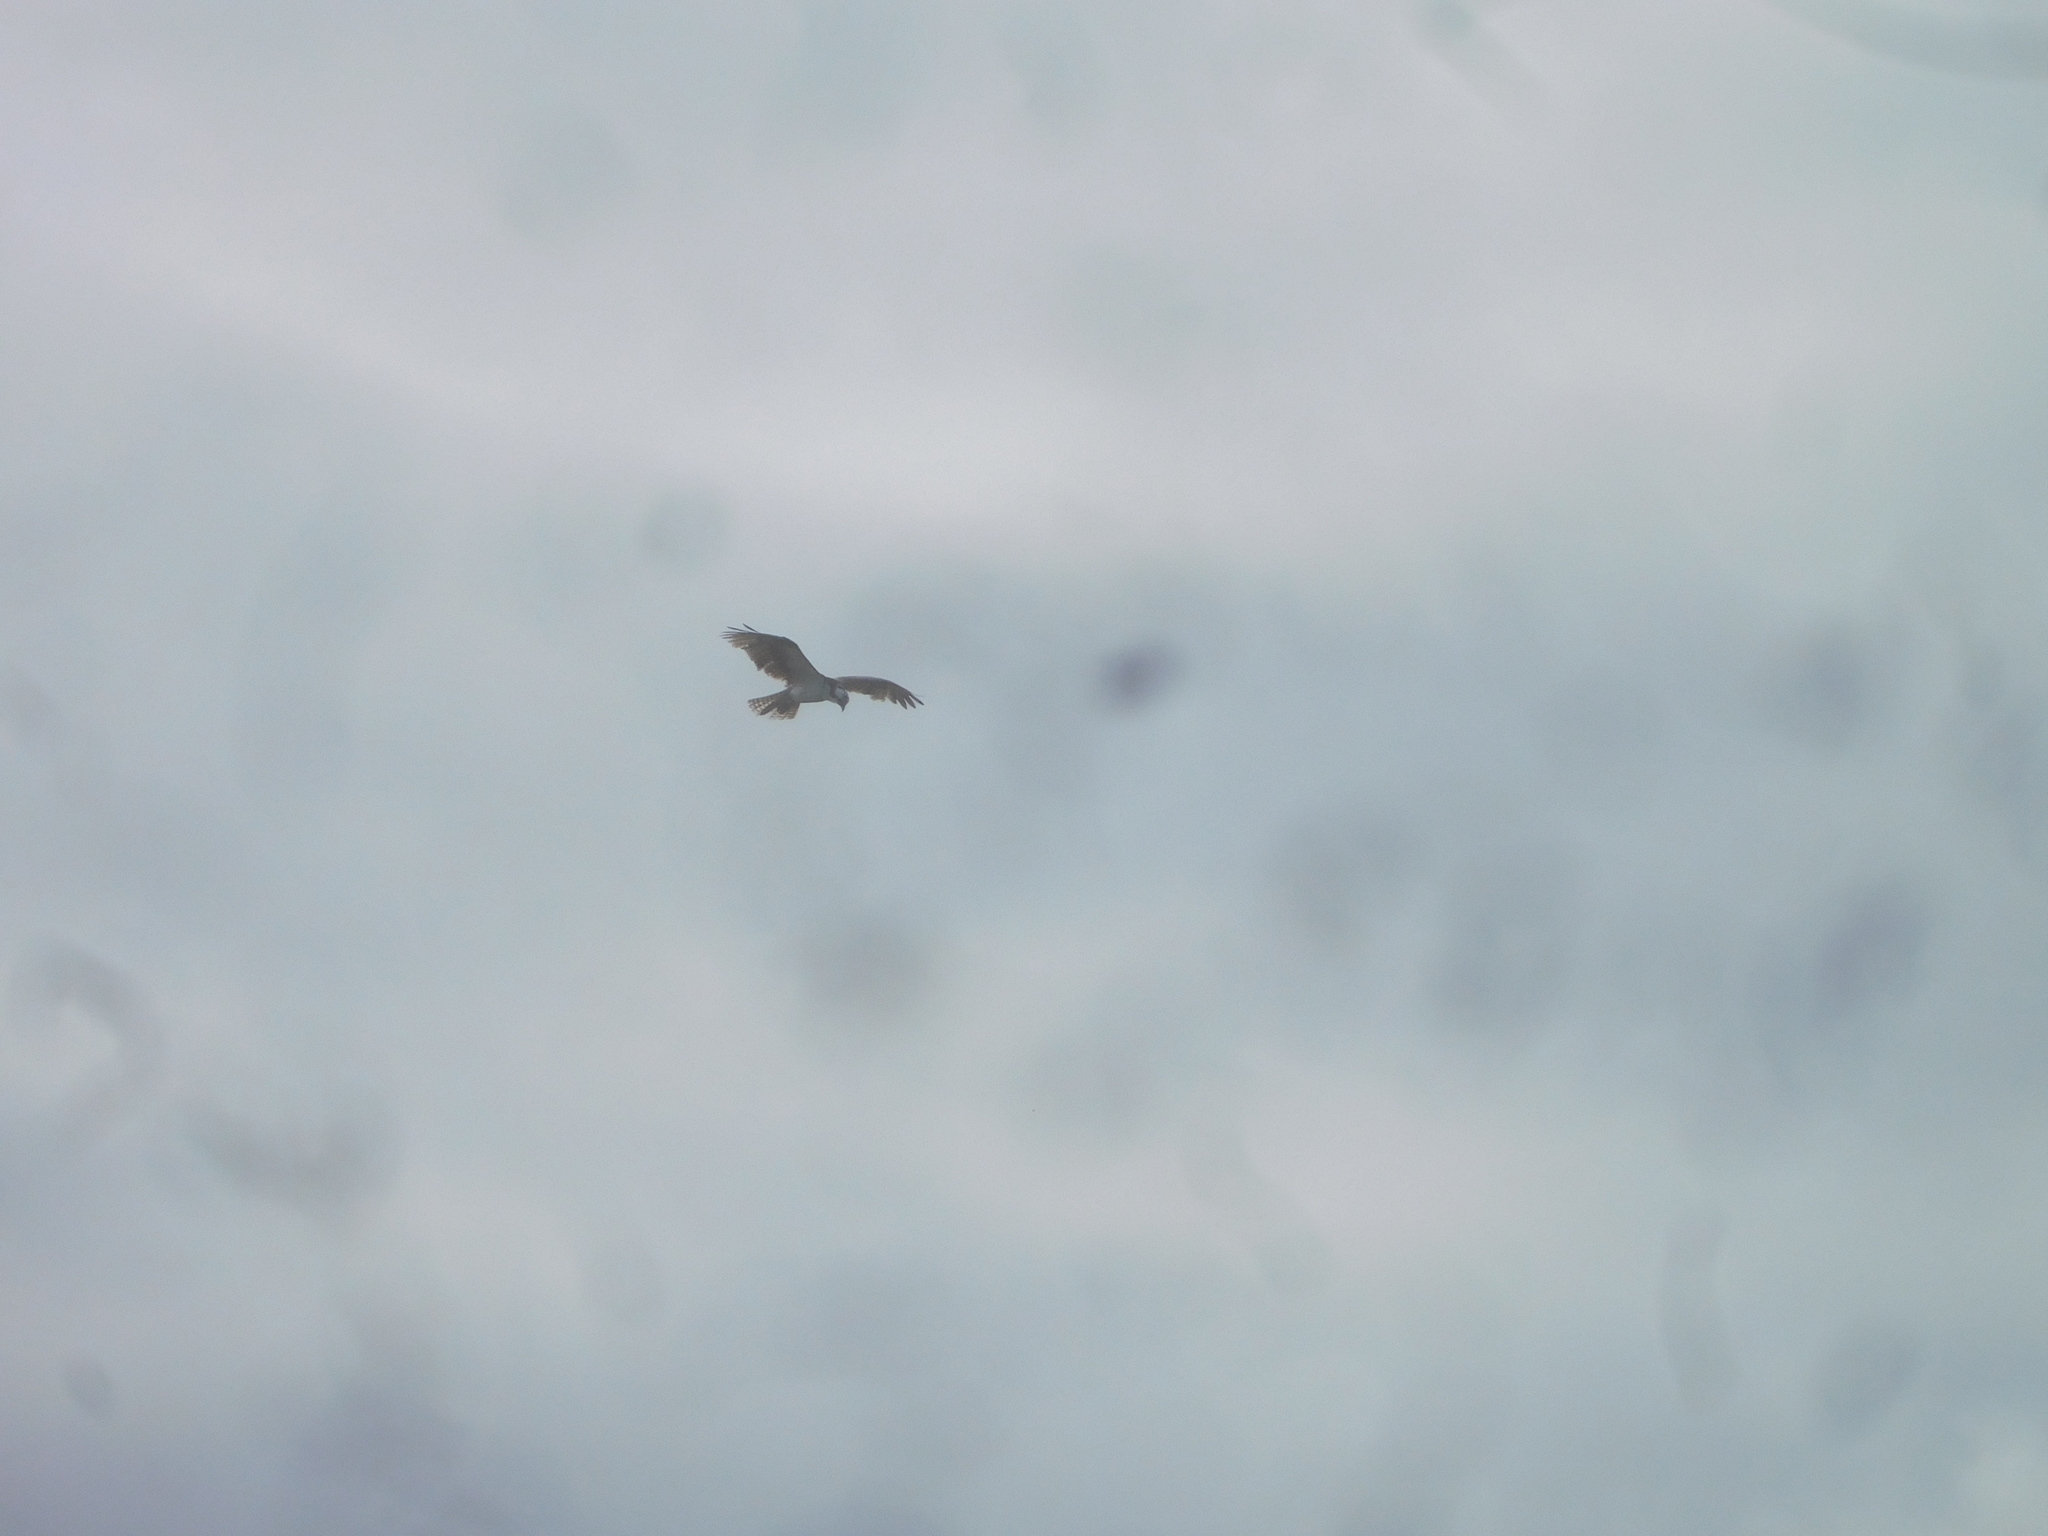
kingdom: Animalia
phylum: Chordata
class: Aves
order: Accipitriformes
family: Pandionidae
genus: Pandion
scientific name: Pandion haliaetus
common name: Osprey
